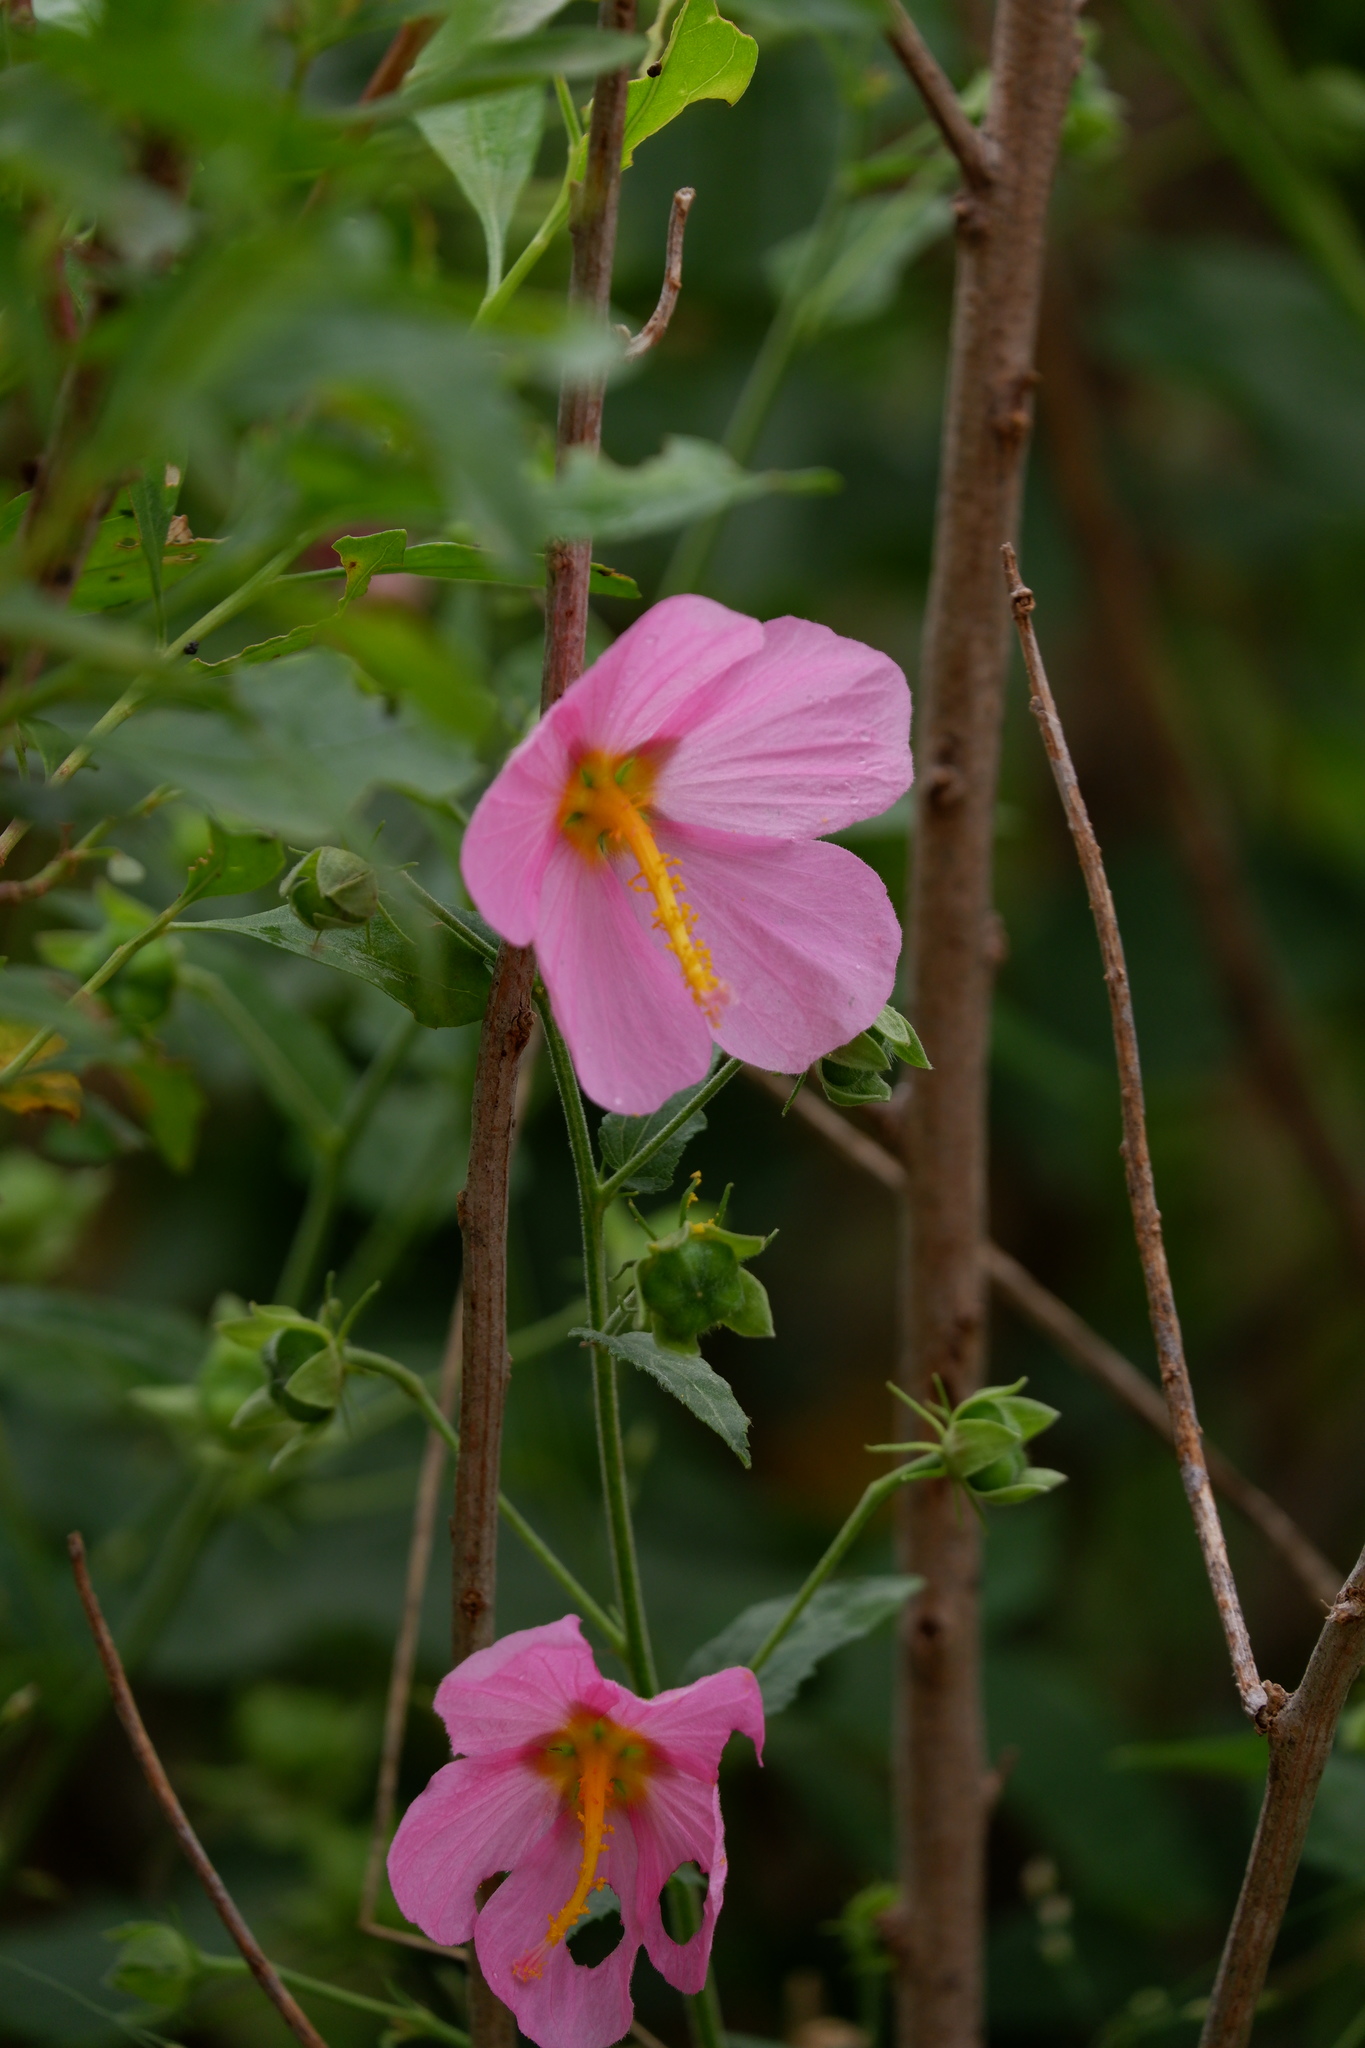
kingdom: Plantae
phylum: Tracheophyta
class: Magnoliopsida
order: Malvales
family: Malvaceae
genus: Kosteletzkya
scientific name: Kosteletzkya pentacarpos
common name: Virginia saltmarsh mallow
